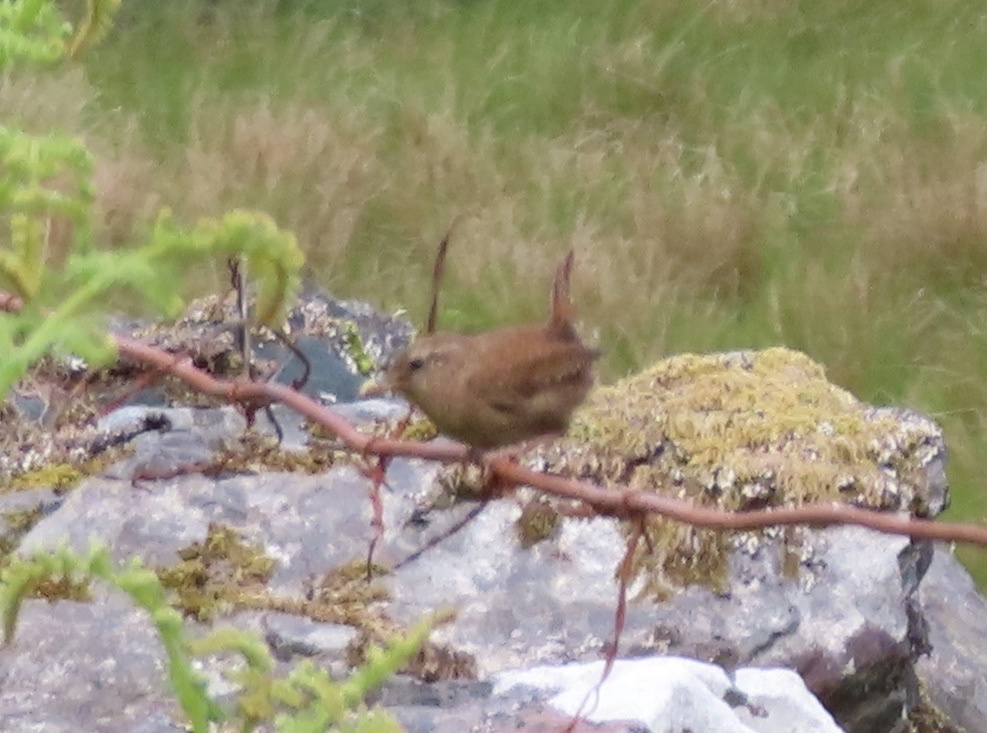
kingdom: Animalia
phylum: Chordata
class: Aves
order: Passeriformes
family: Troglodytidae
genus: Troglodytes
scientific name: Troglodytes troglodytes
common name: Eurasian wren
